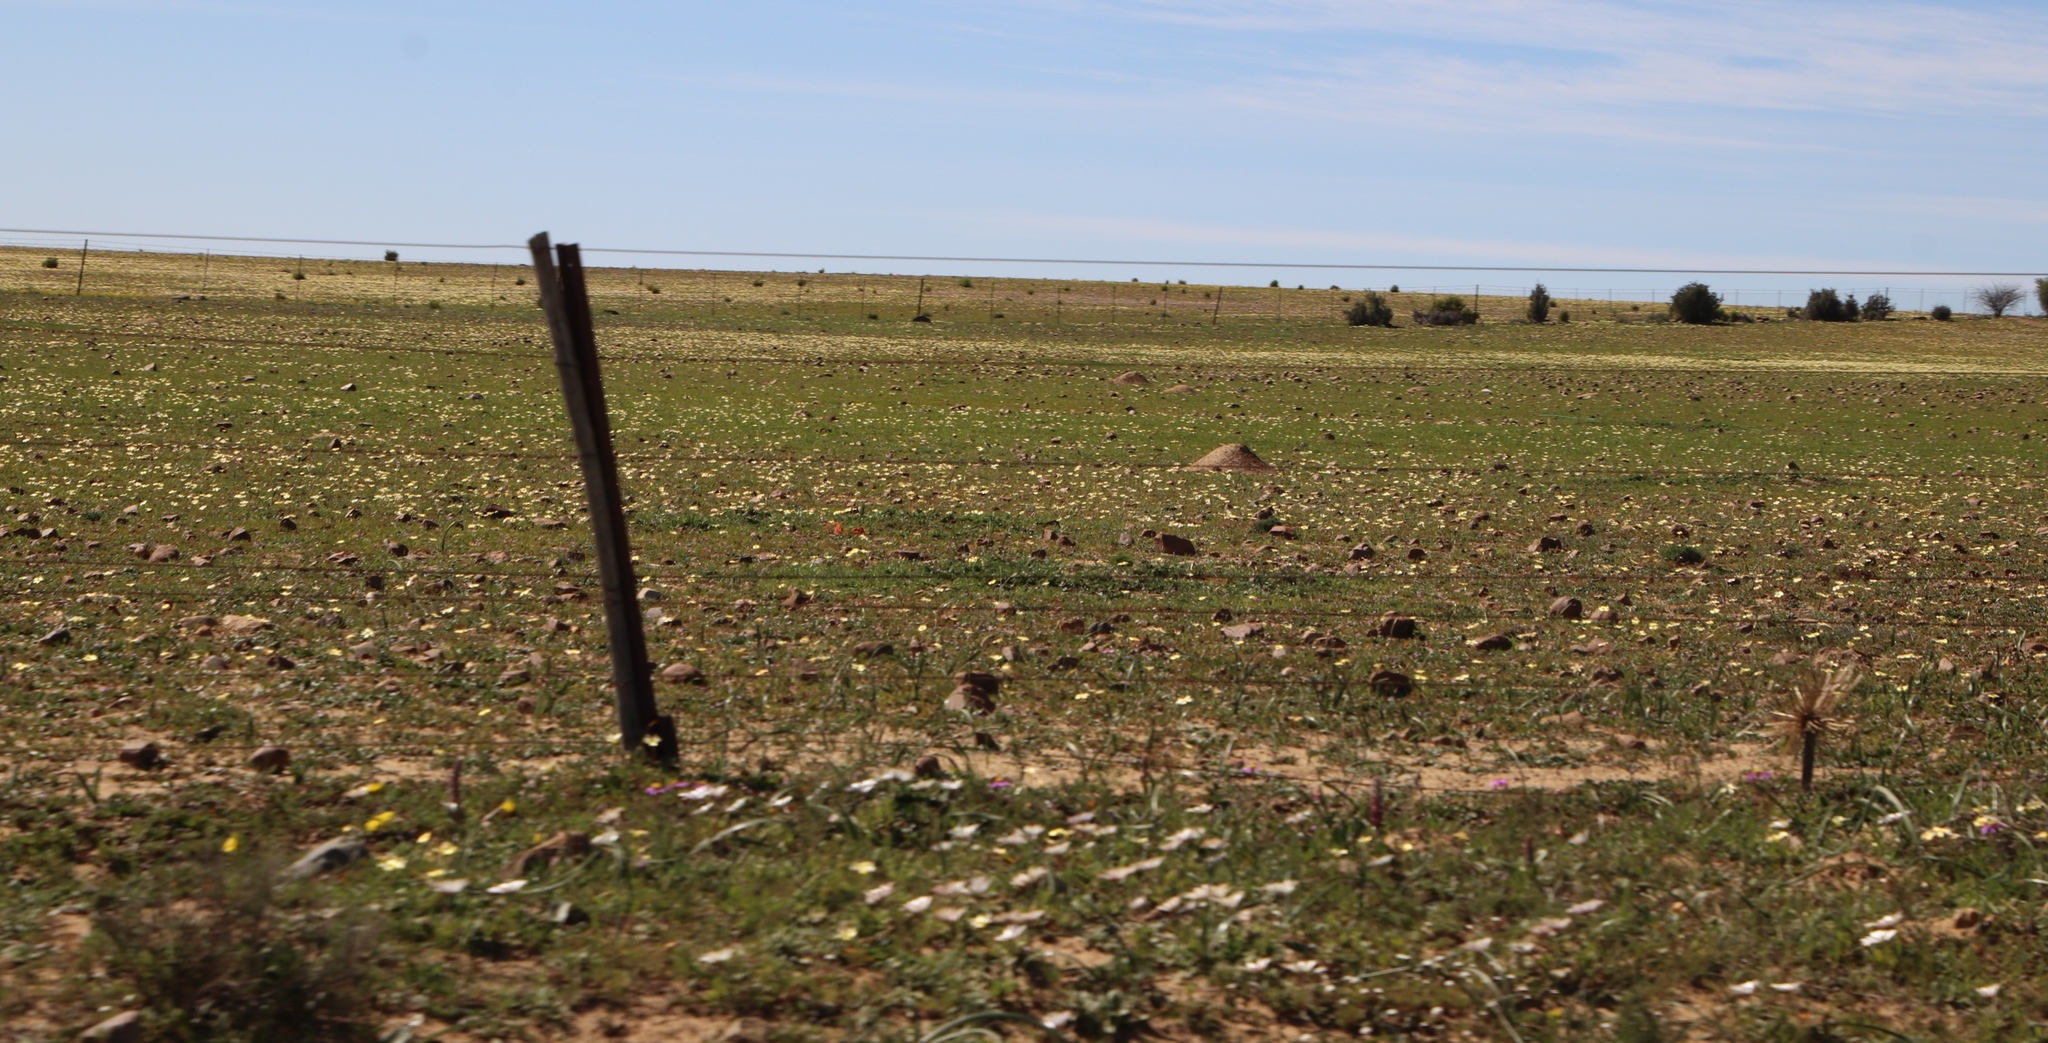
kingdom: Plantae
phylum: Tracheophyta
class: Magnoliopsida
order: Oxalidales
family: Oxalidaceae
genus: Oxalis
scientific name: Oxalis obtusa
